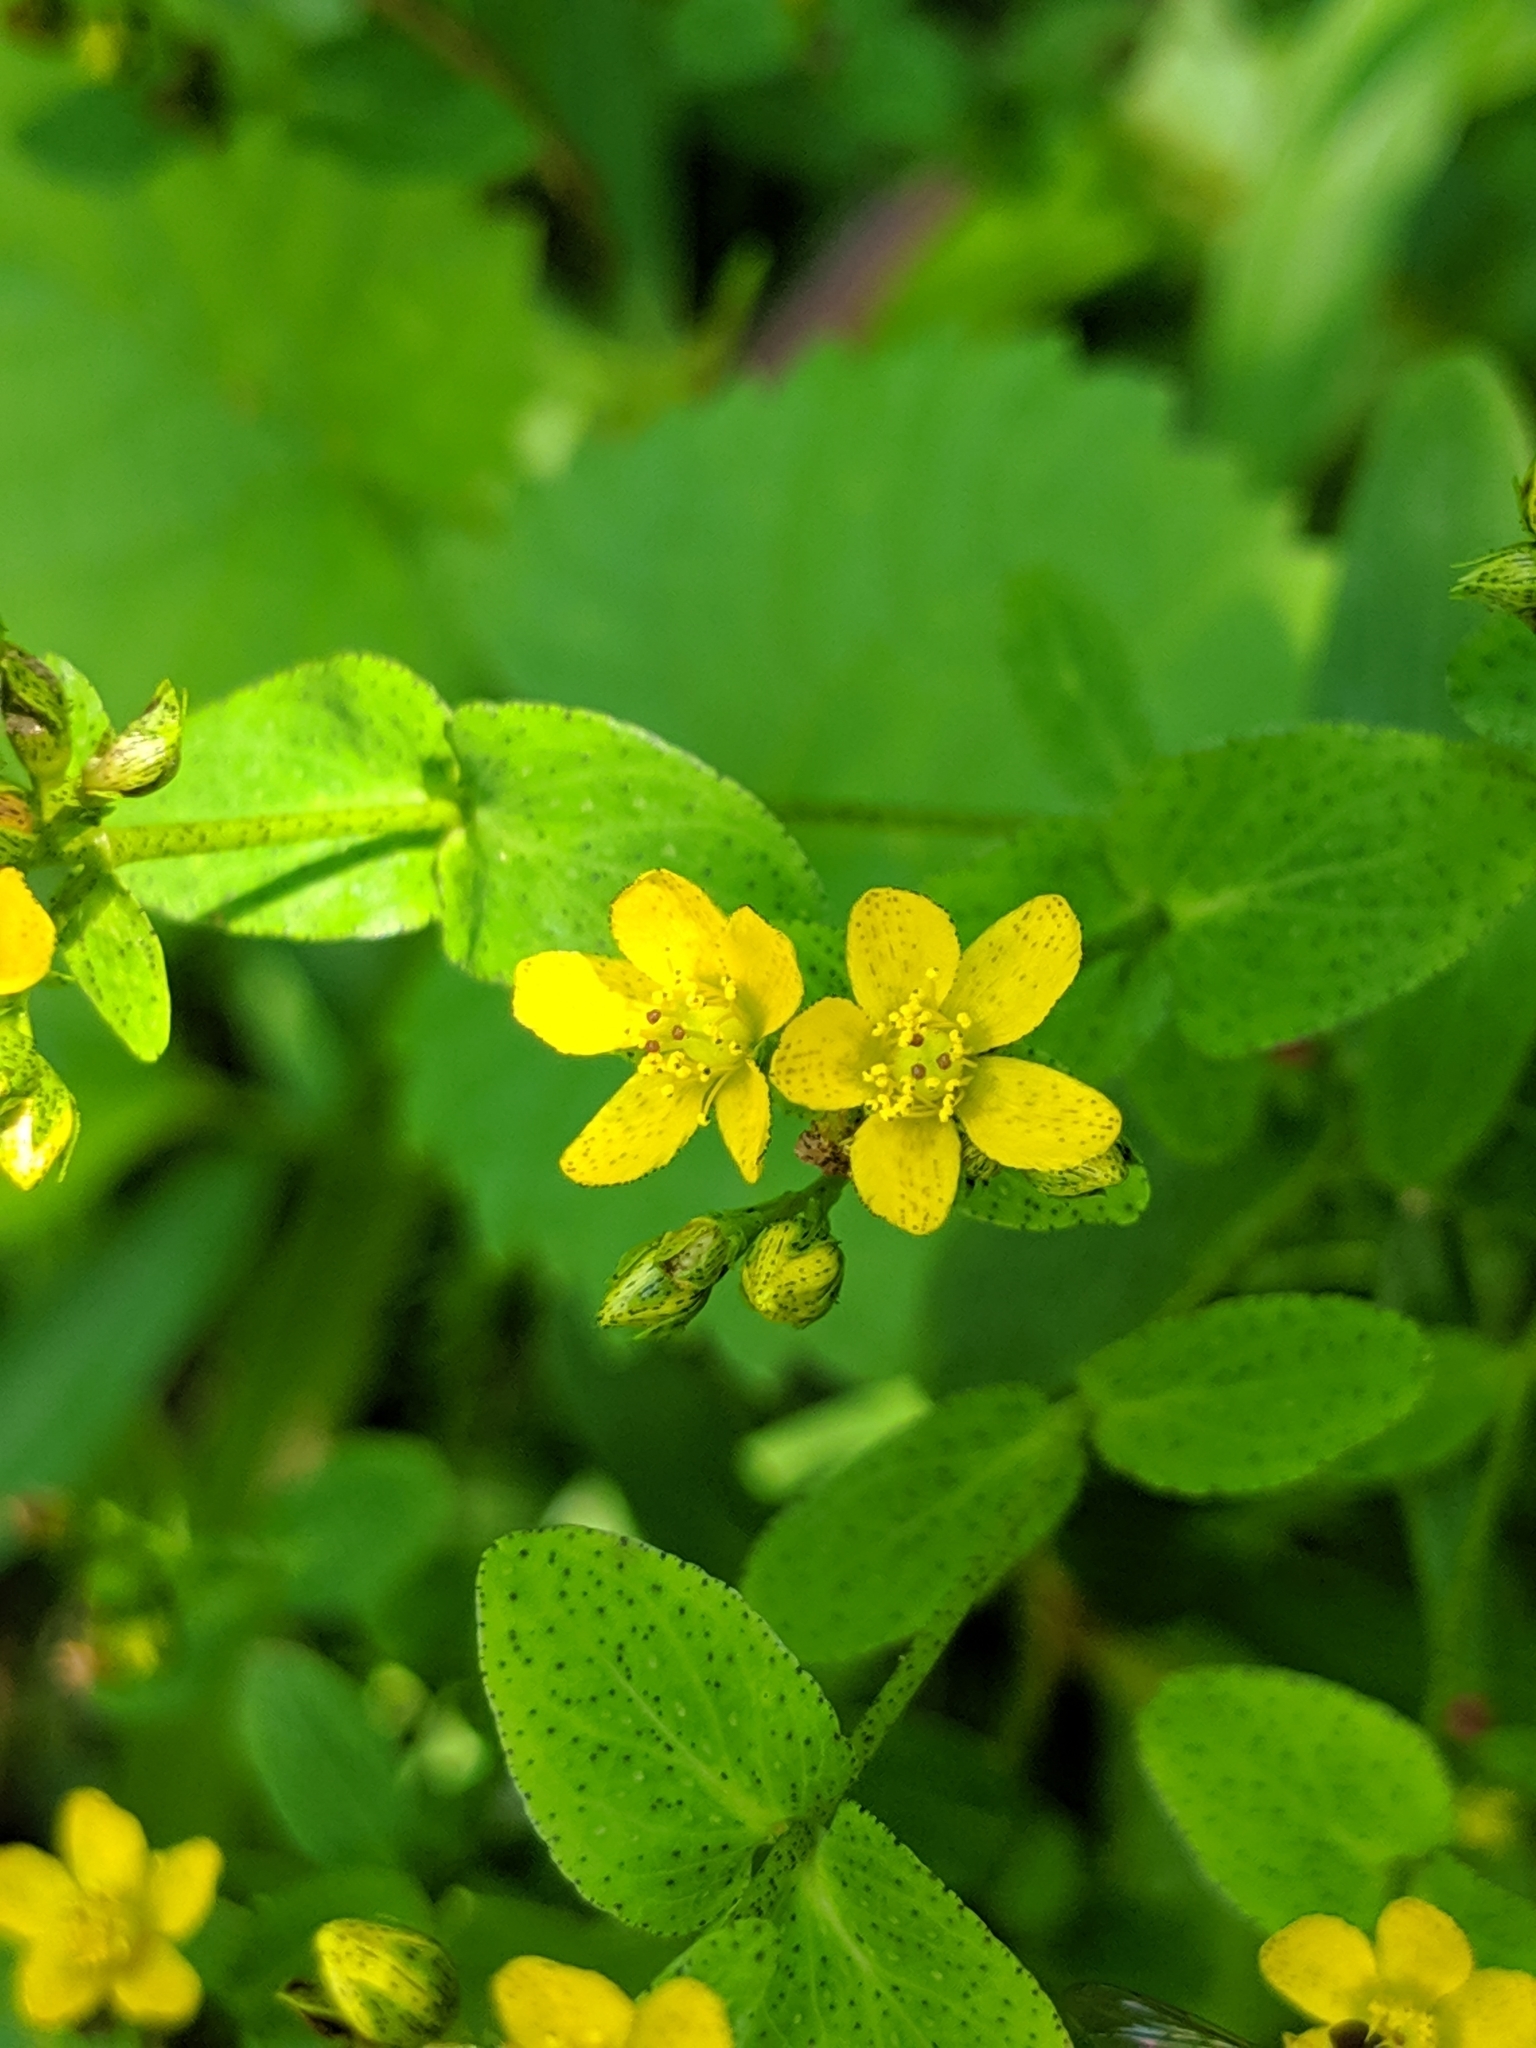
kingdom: Plantae
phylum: Tracheophyta
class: Magnoliopsida
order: Malpighiales
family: Hypericaceae
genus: Hypericum
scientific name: Hypericum punctatum
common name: Spotted st. john's-wort
